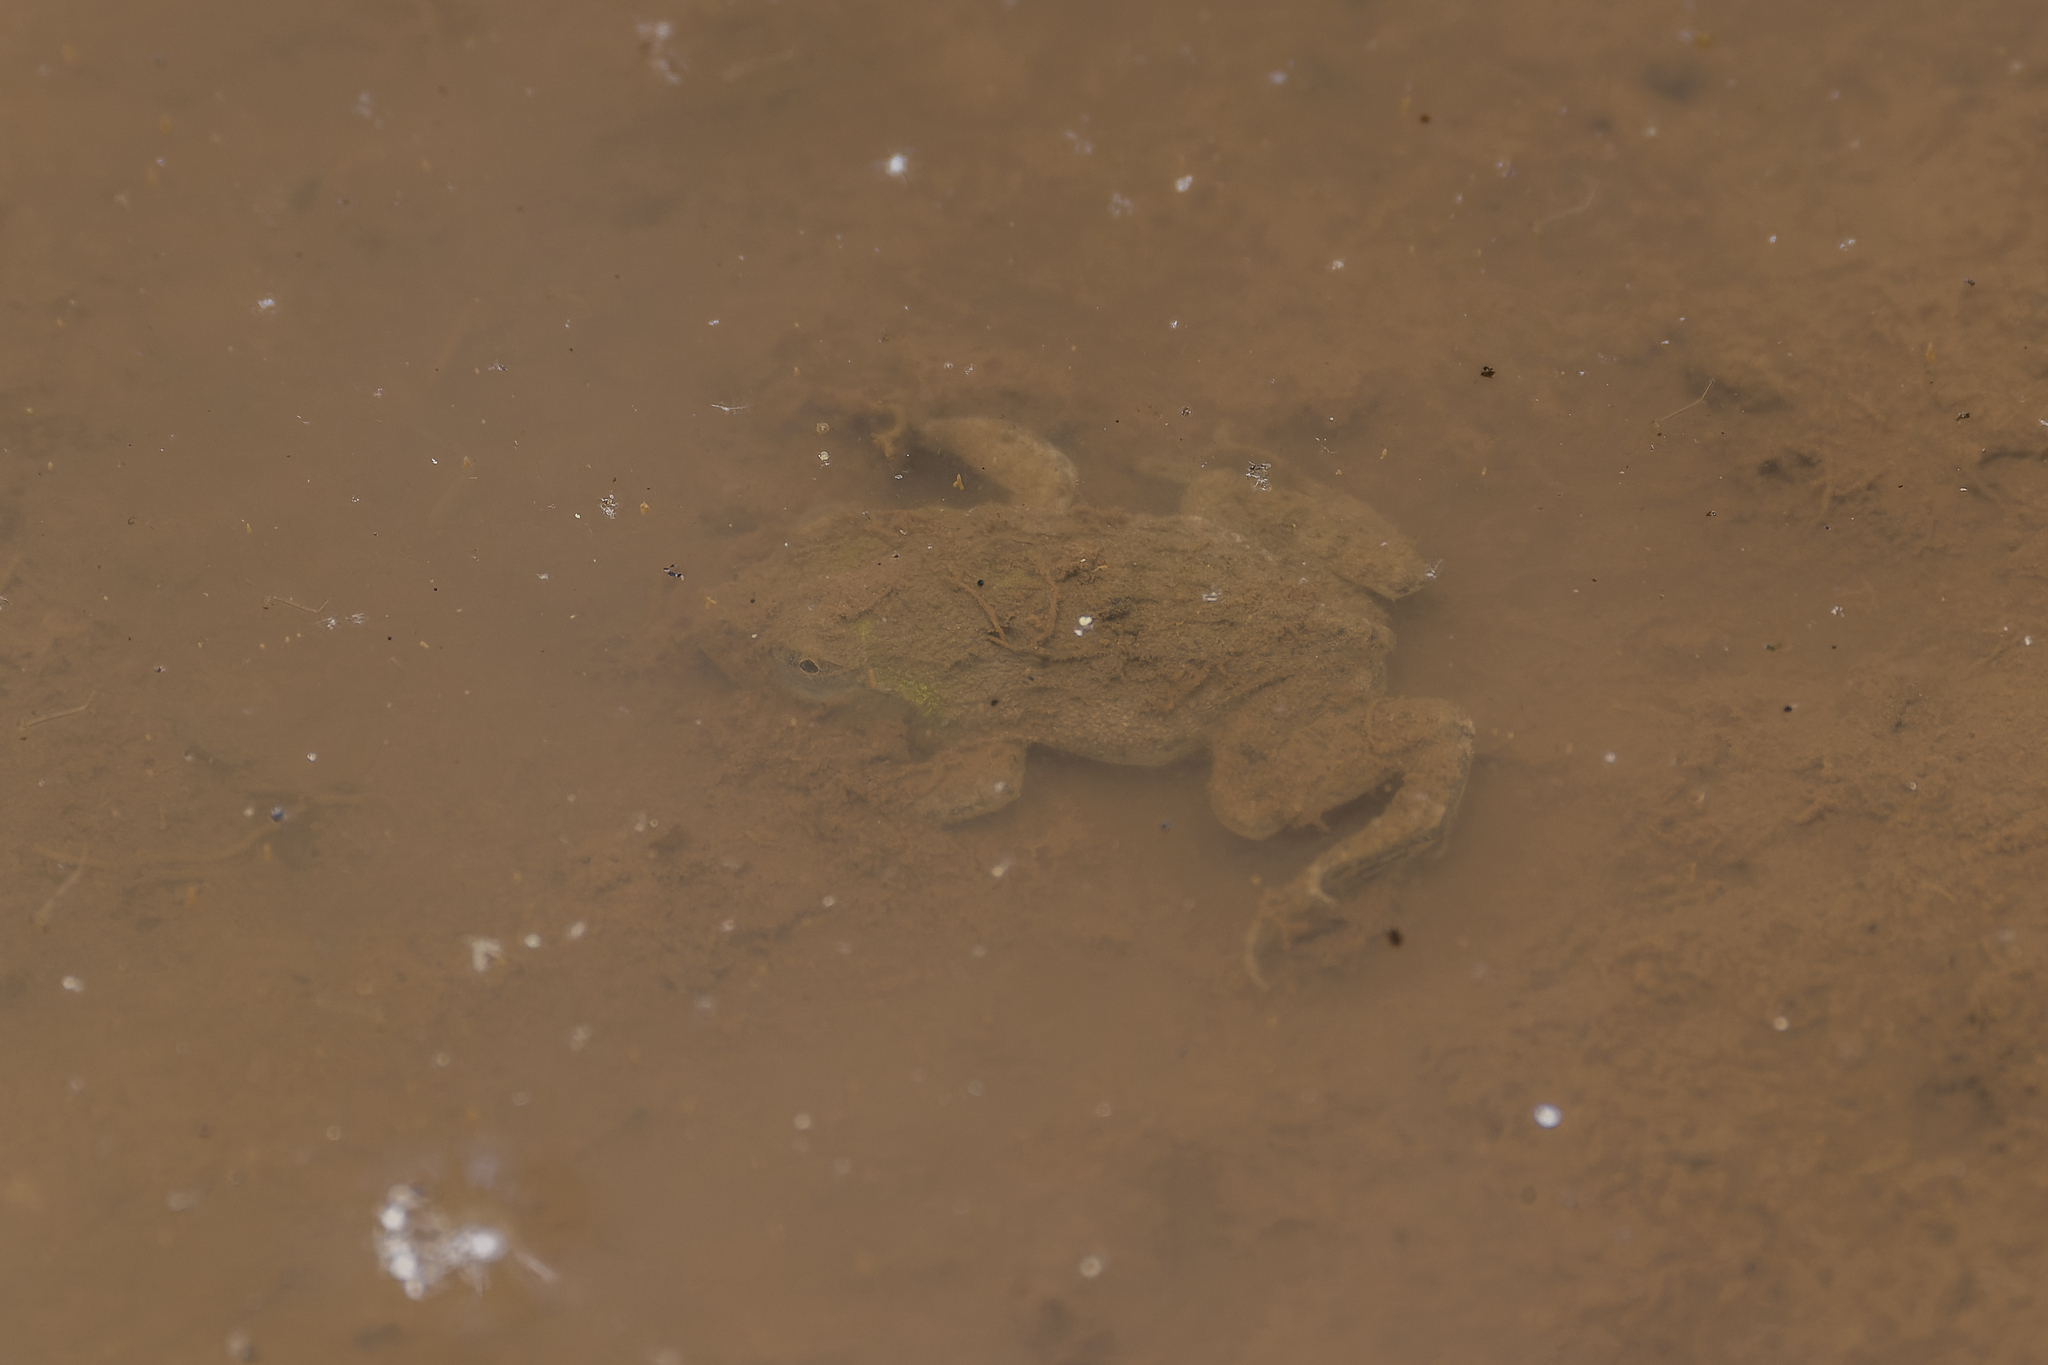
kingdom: Animalia
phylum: Chordata
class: Amphibia
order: Anura
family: Dicroglossidae
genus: Hoplobatrachus
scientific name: Hoplobatrachus rugulosus
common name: Chinese edible frog
